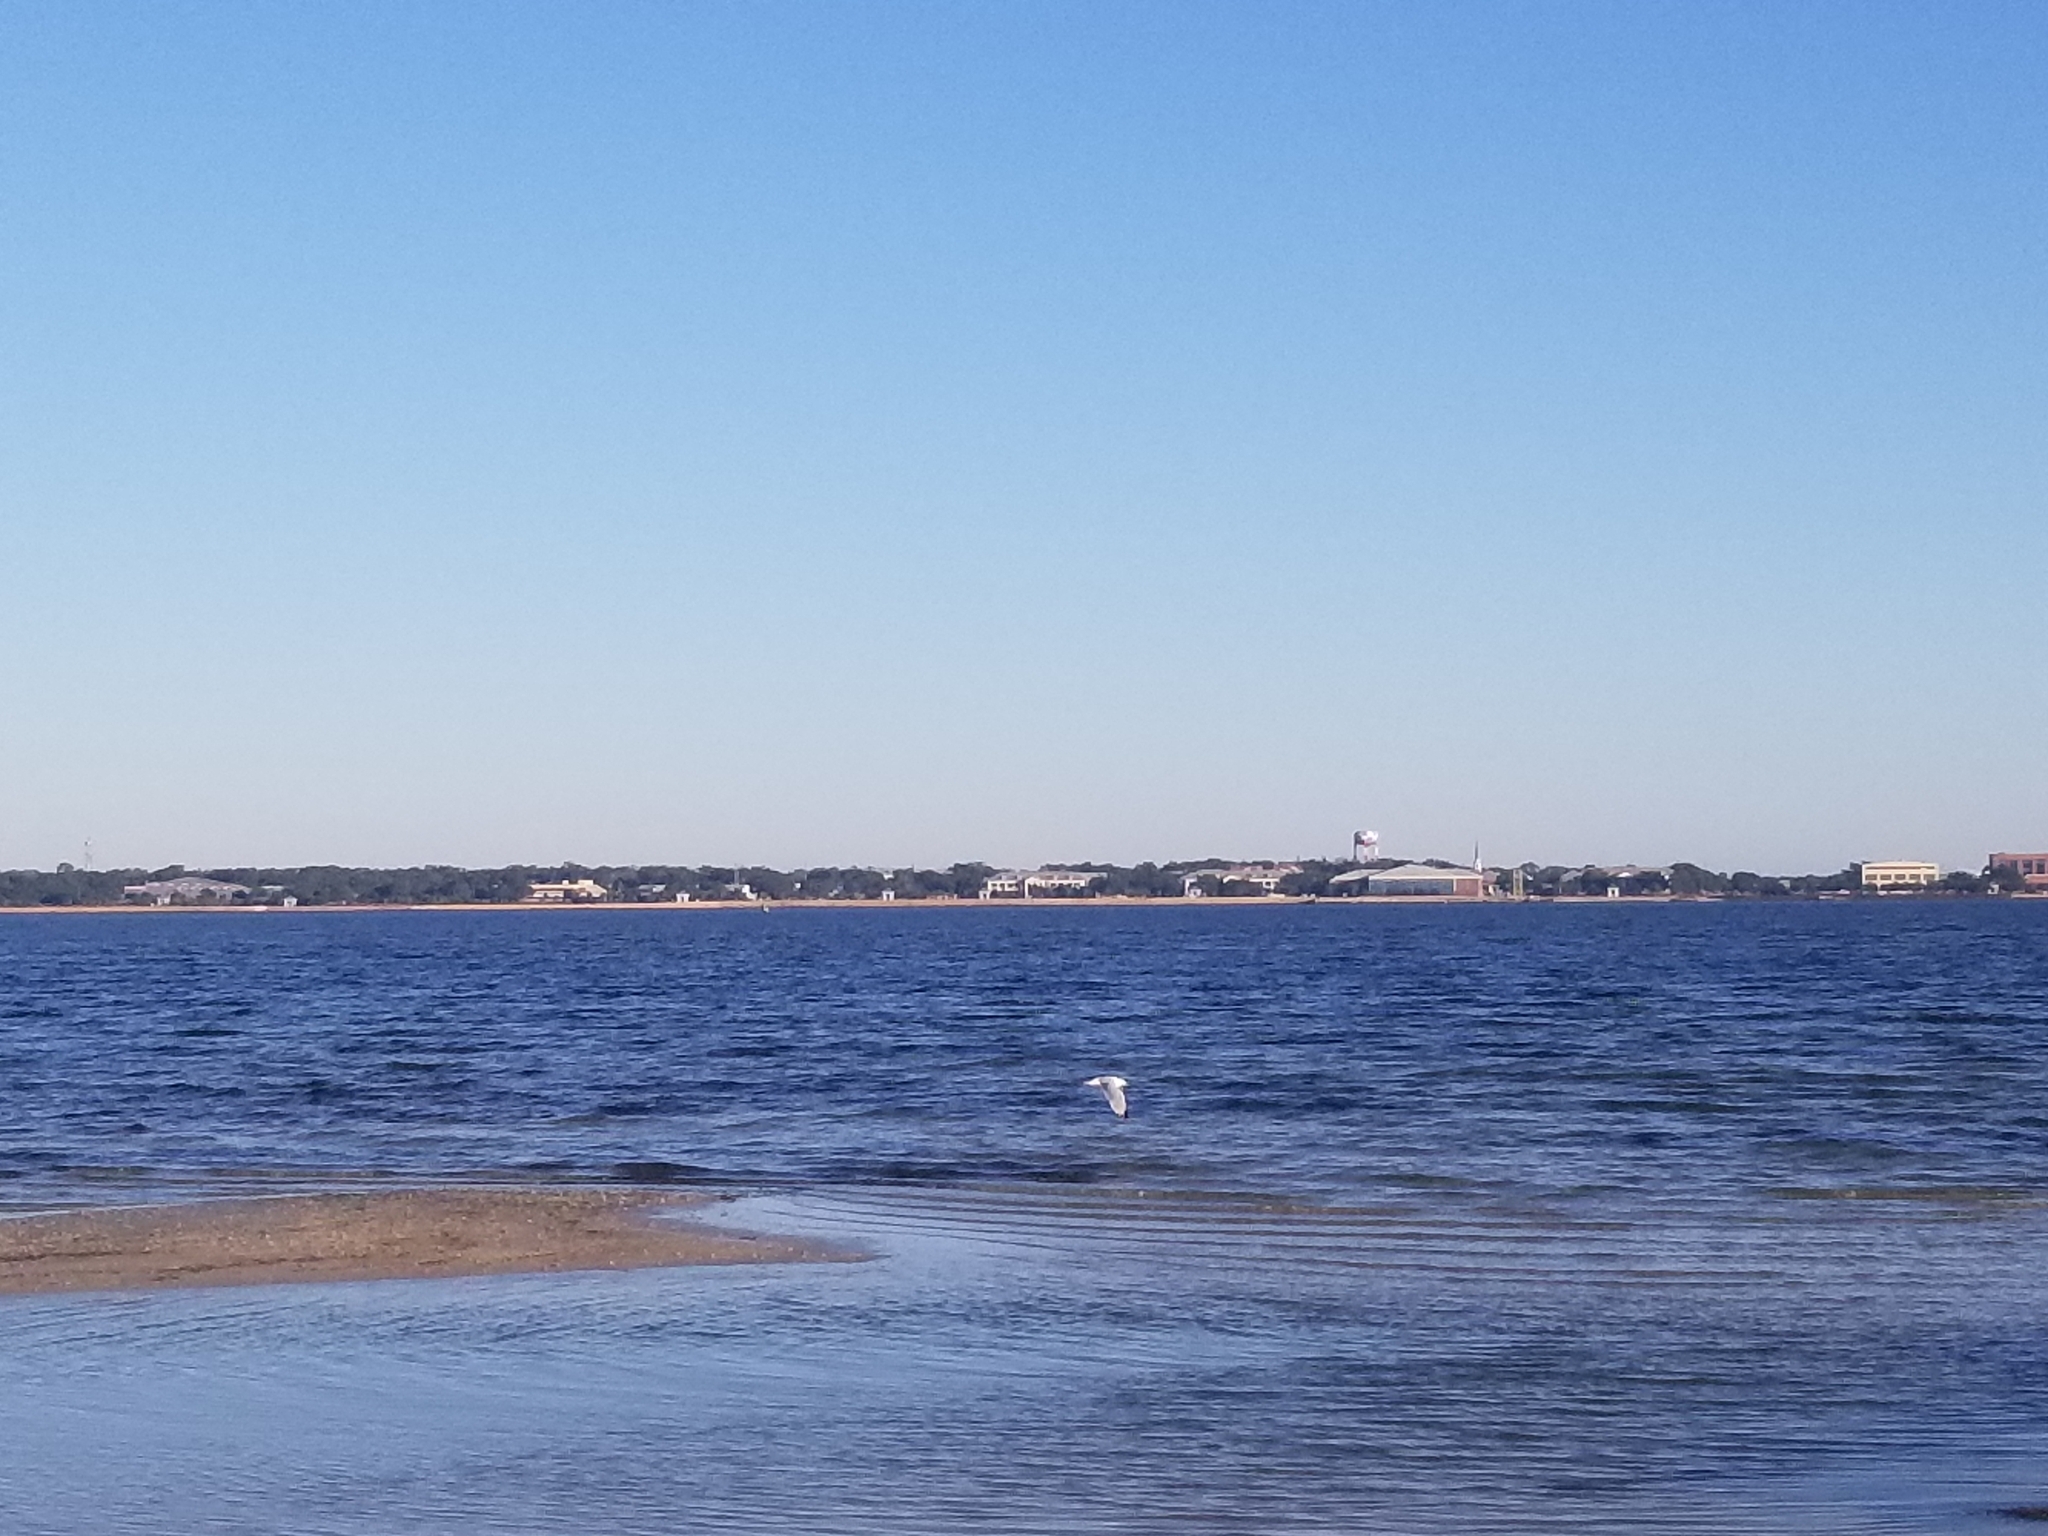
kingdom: Animalia
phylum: Chordata
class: Aves
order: Charadriiformes
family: Laridae
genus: Larus
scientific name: Larus delawarensis
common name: Ring-billed gull
